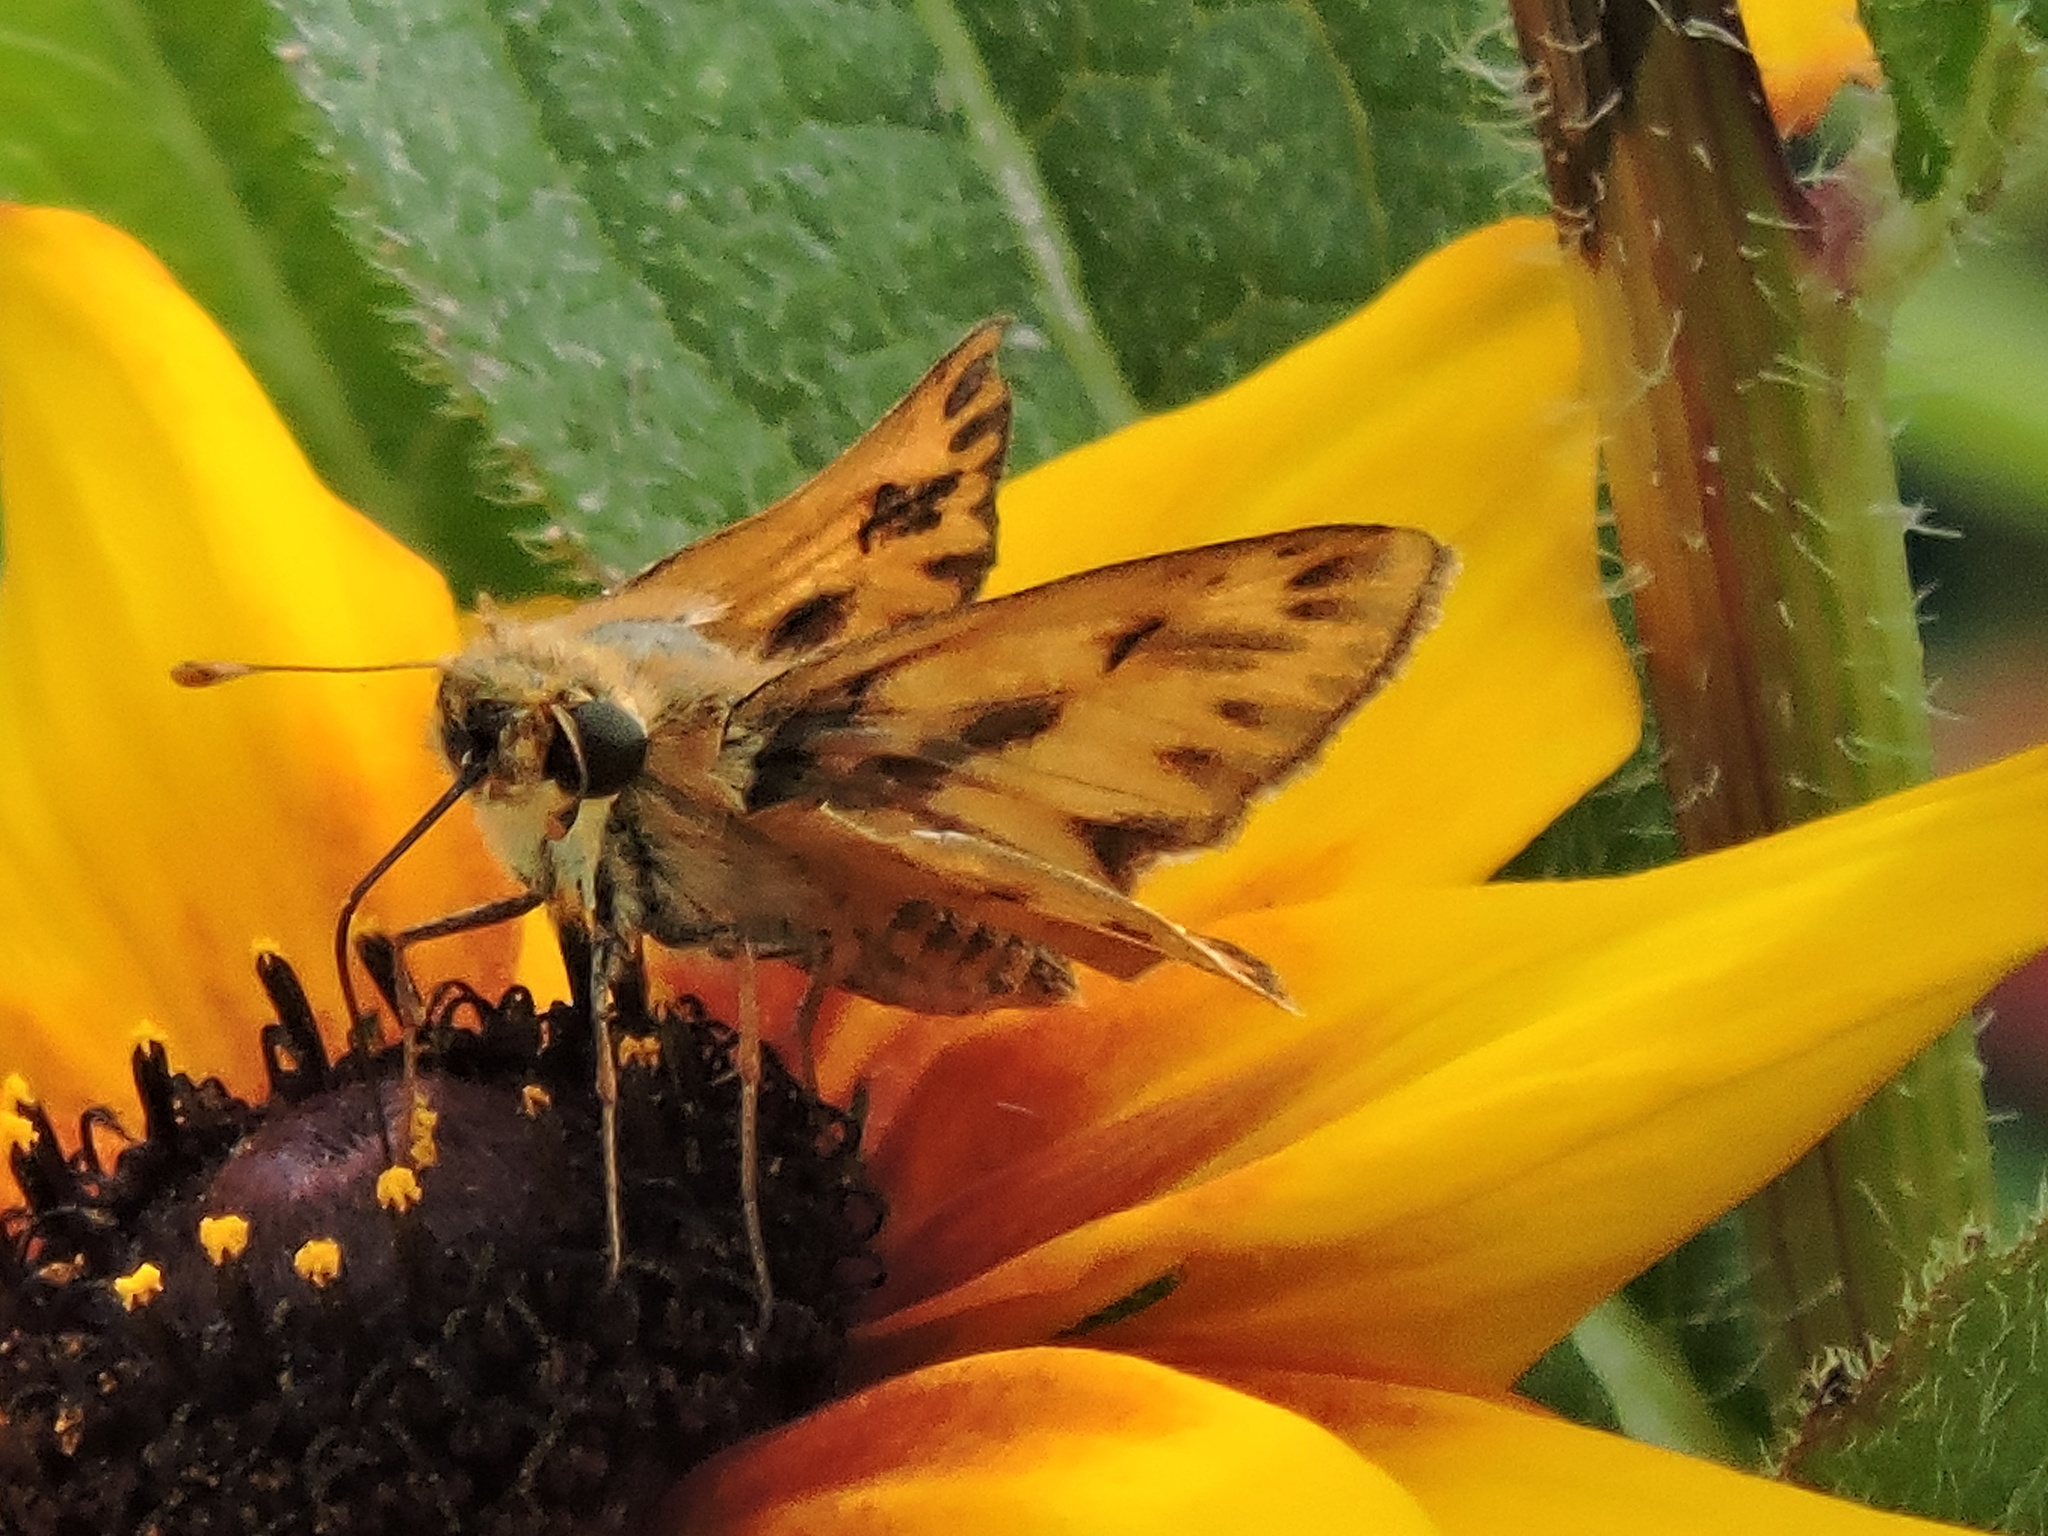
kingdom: Animalia
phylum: Arthropoda
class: Insecta
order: Lepidoptera
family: Hesperiidae
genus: Hylephila
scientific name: Hylephila phyleus
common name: Fiery skipper
